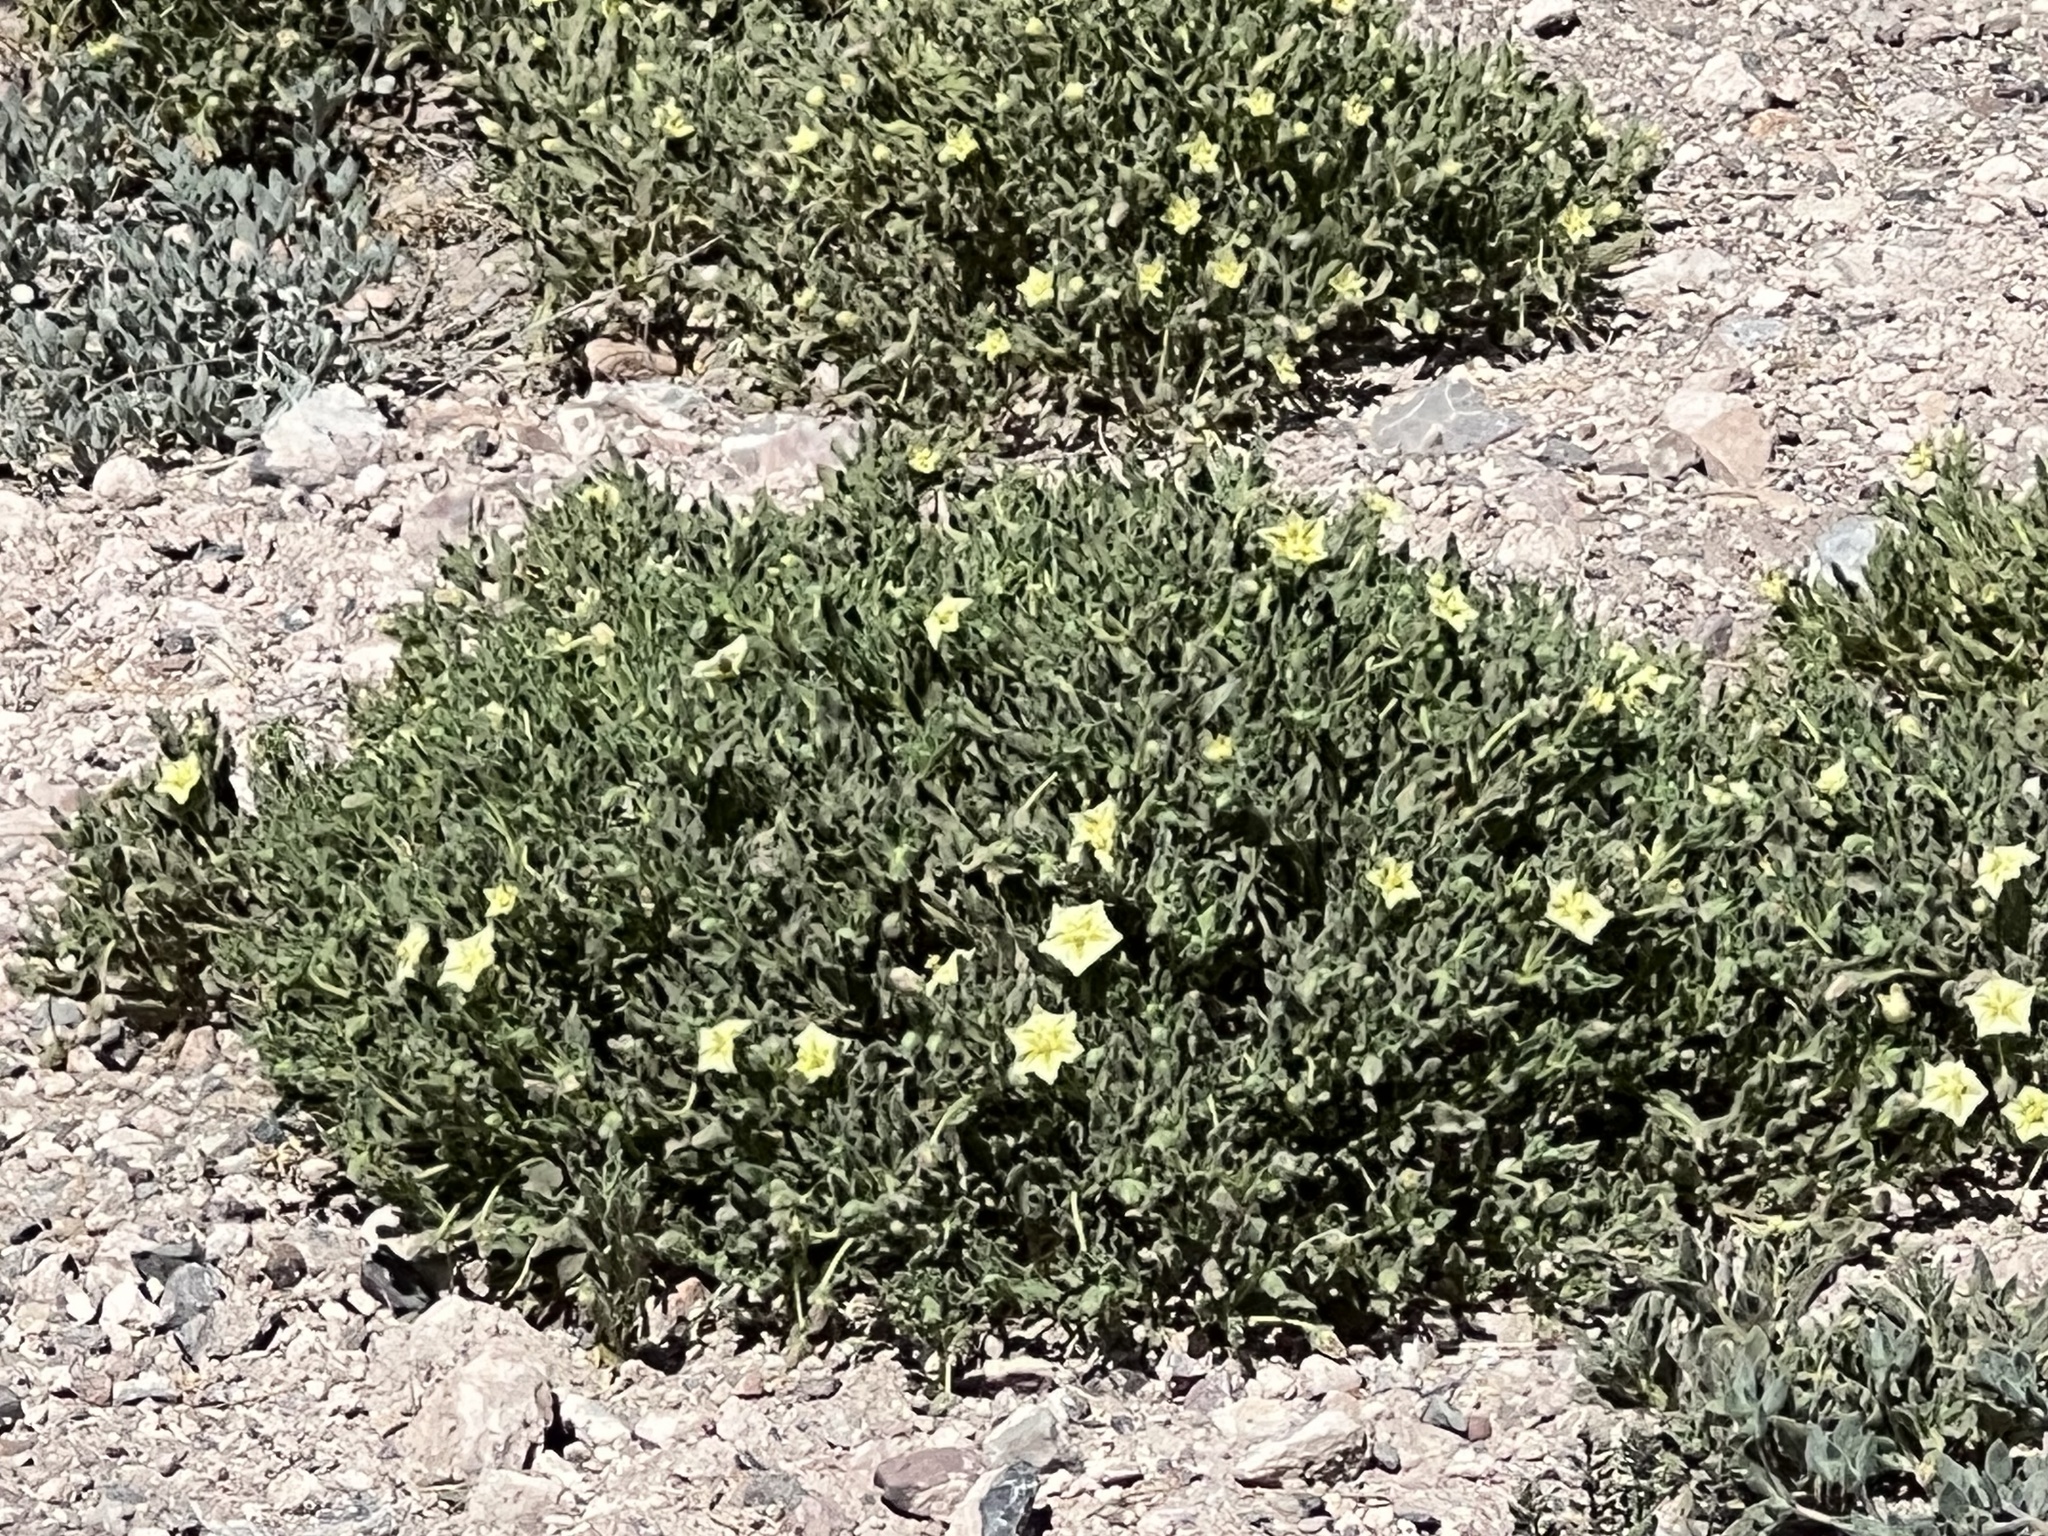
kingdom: Plantae
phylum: Tracheophyta
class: Magnoliopsida
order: Solanales
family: Solanaceae
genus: Chamaesaracha
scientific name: Chamaesaracha sordida
